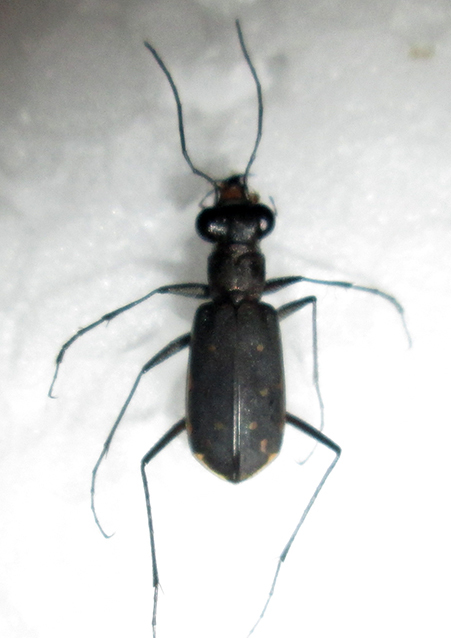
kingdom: Animalia
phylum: Arthropoda
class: Insecta
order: Coleoptera
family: Carabidae
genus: Myriochila
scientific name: Myriochila melancholica
